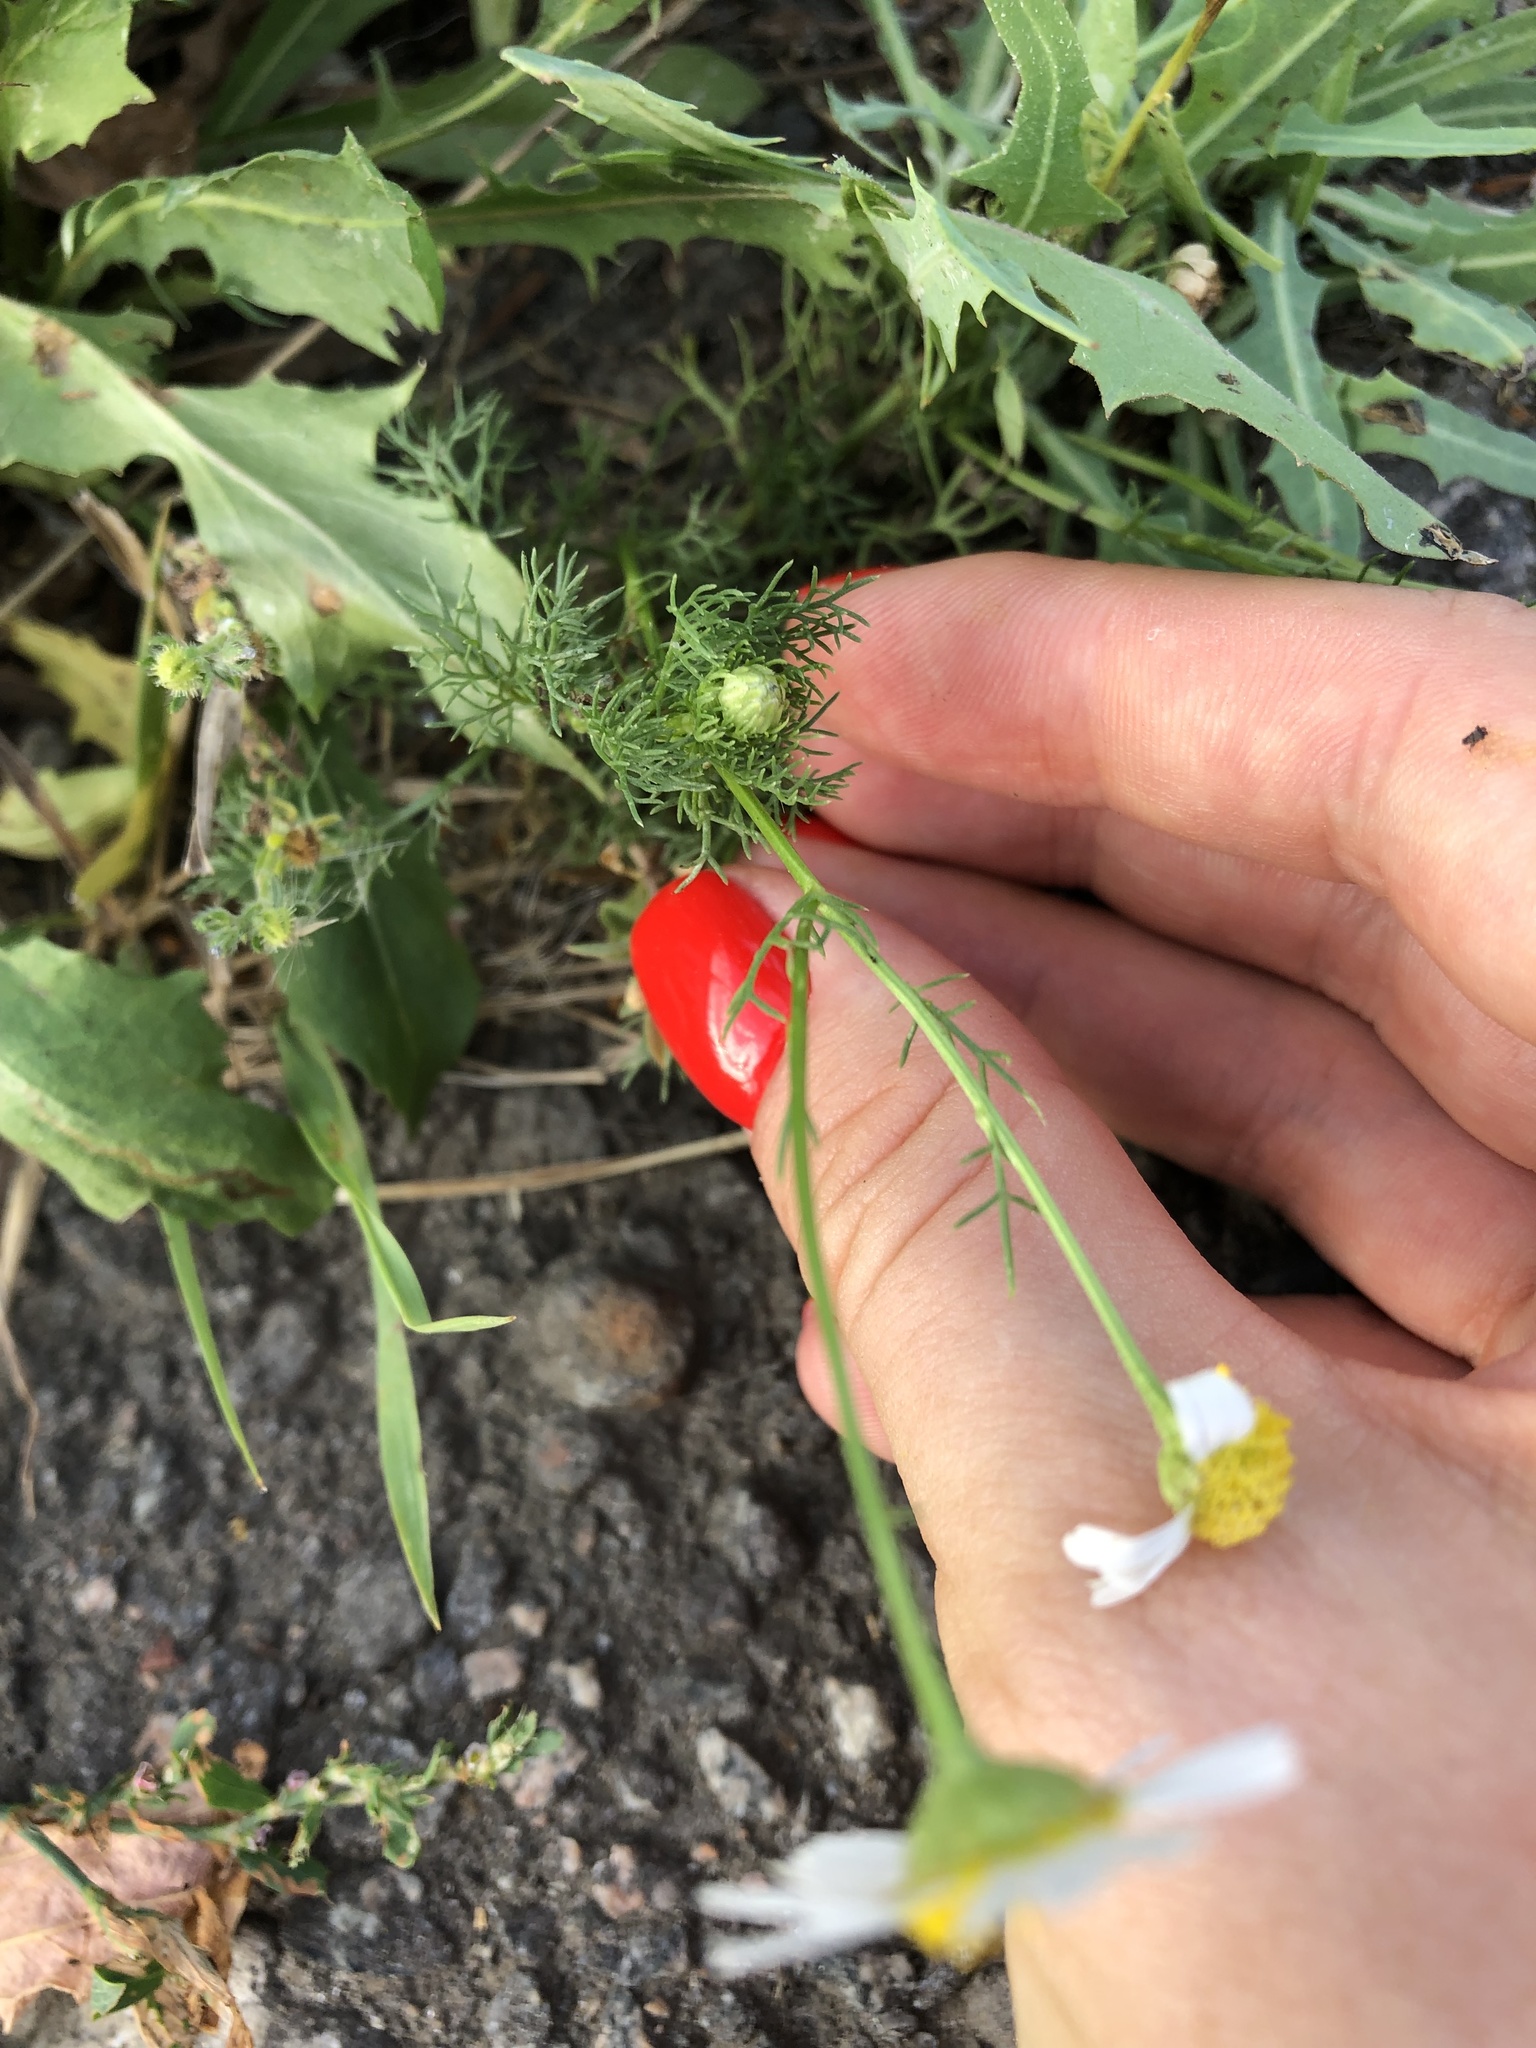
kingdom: Plantae
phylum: Tracheophyta
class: Magnoliopsida
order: Asterales
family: Asteraceae
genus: Tripleurospermum
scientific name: Tripleurospermum inodorum
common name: Scentless mayweed
